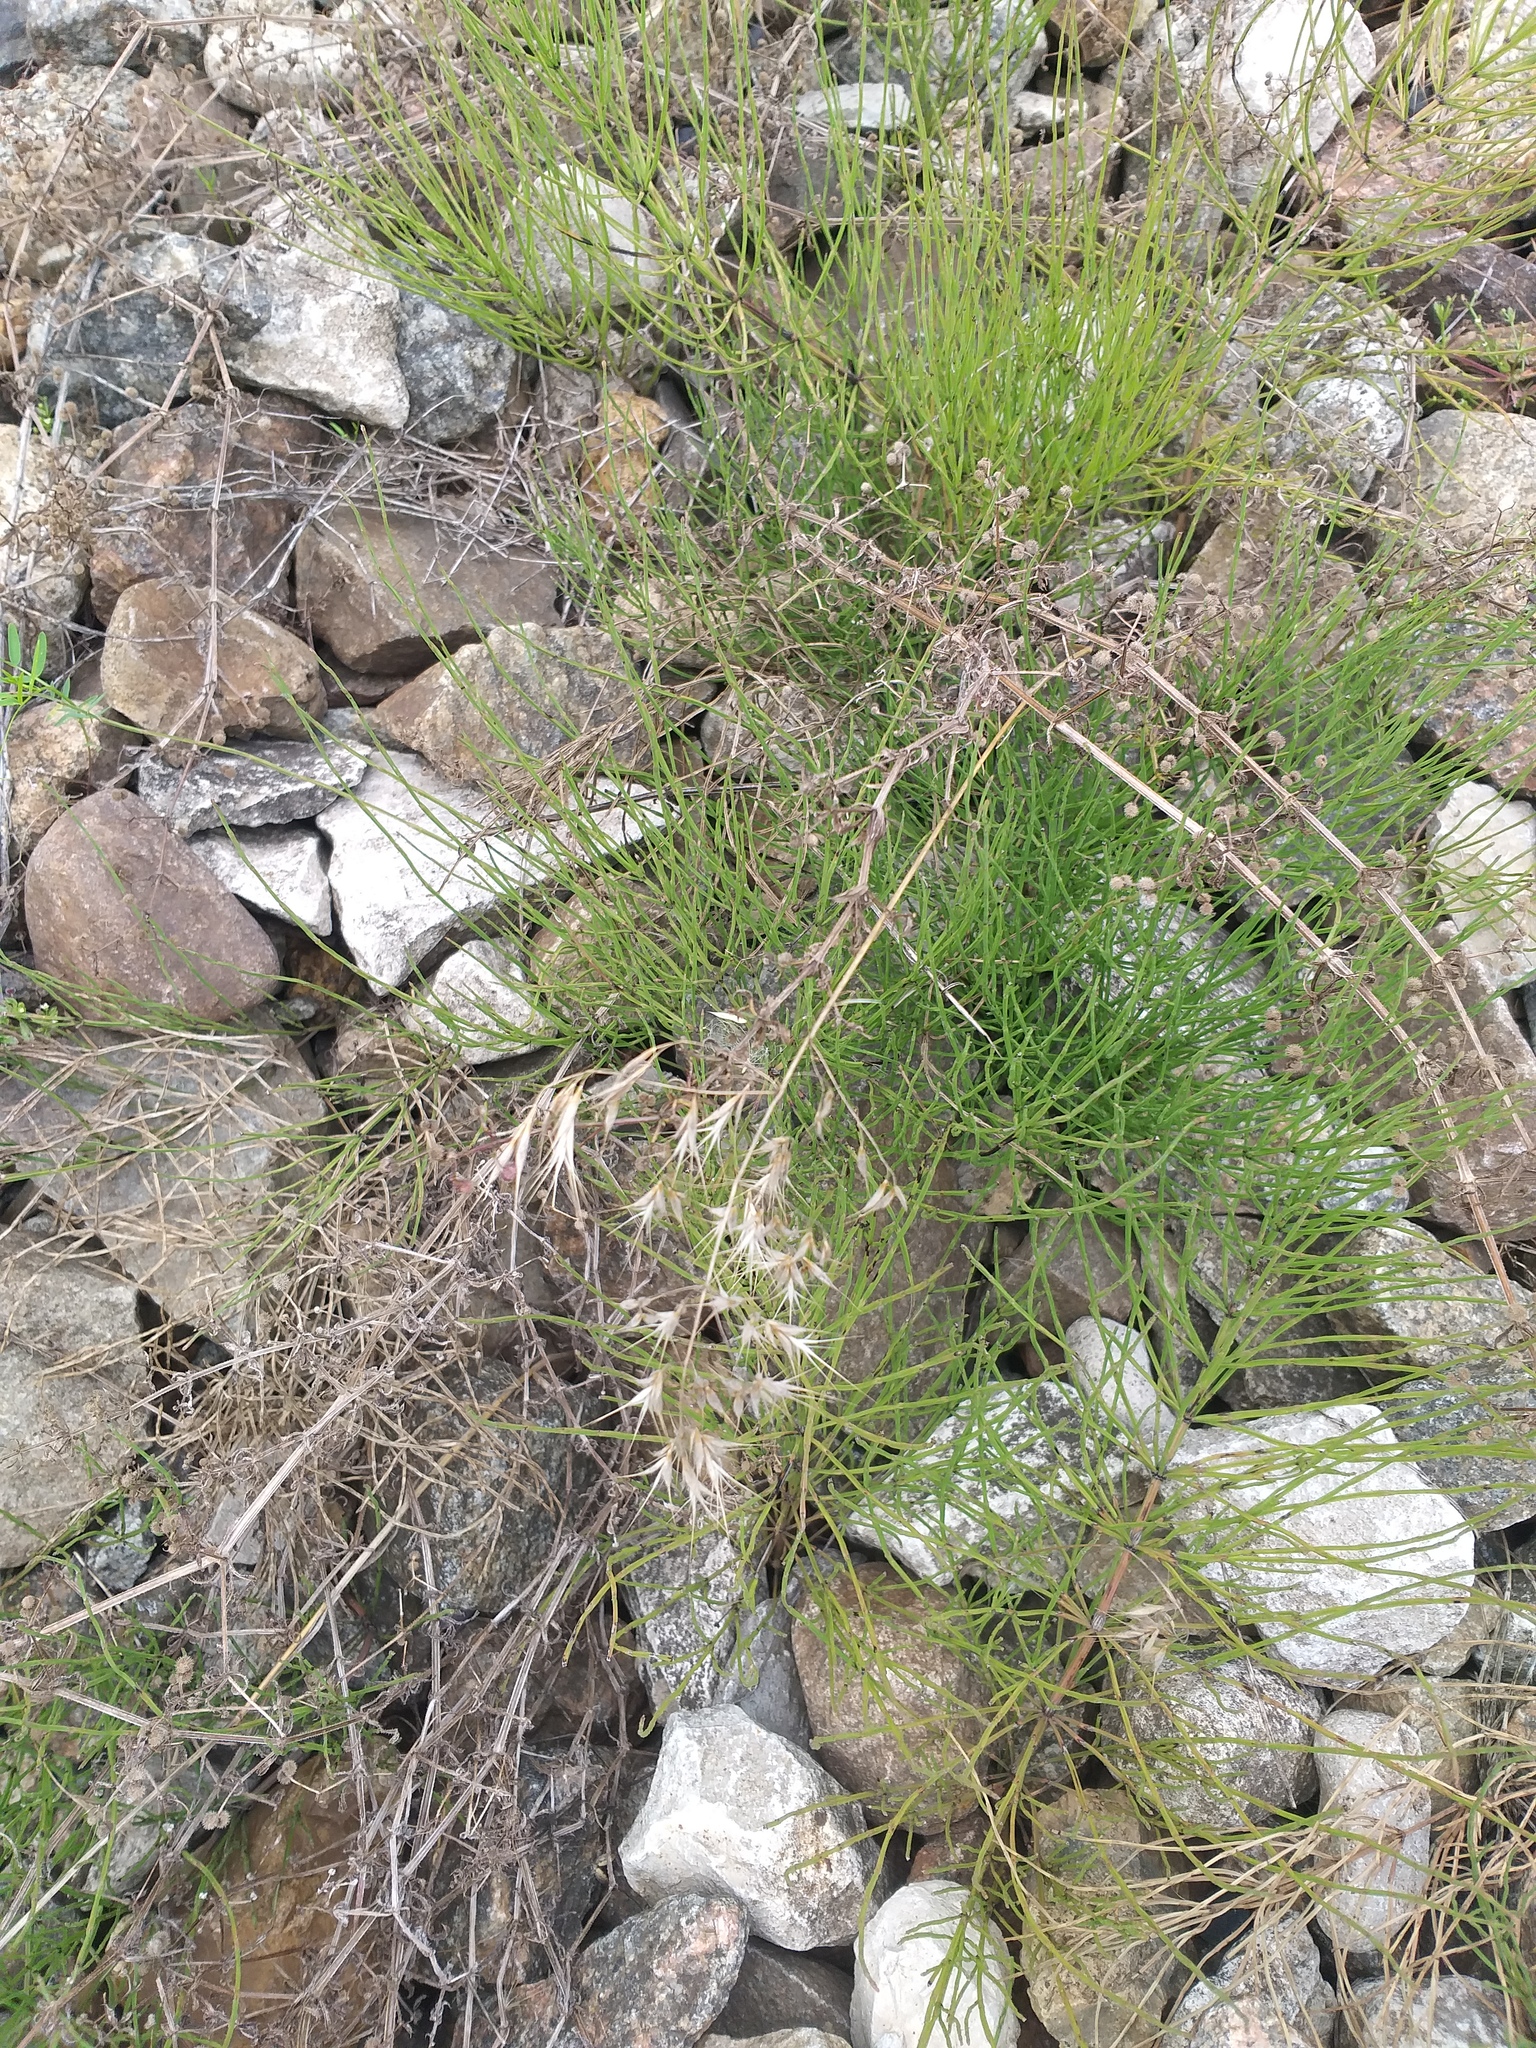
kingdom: Plantae
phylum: Tracheophyta
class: Liliopsida
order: Poales
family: Poaceae
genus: Bromus
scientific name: Bromus tectorum
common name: Cheatgrass
